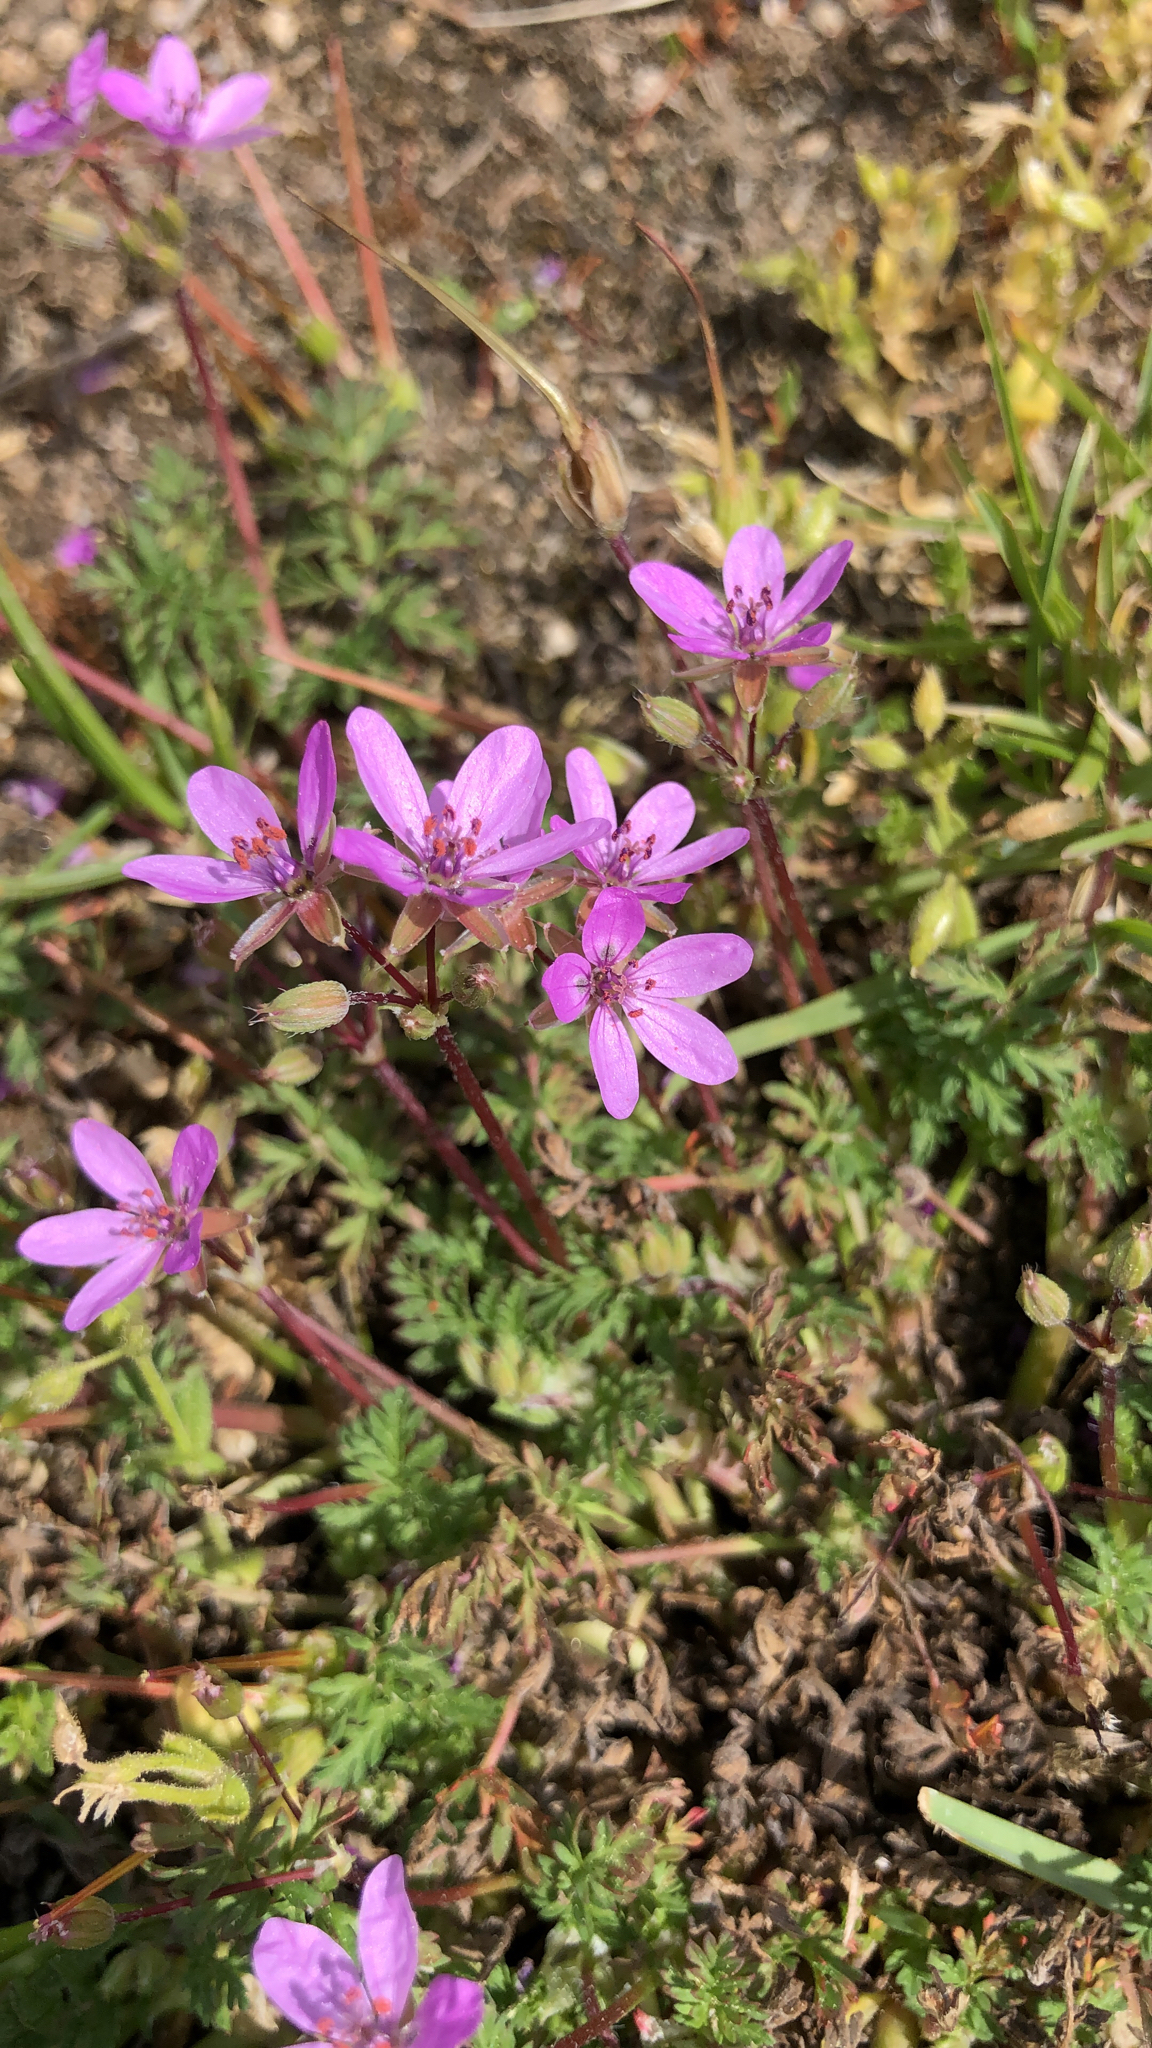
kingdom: Plantae
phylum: Tracheophyta
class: Magnoliopsida
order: Geraniales
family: Geraniaceae
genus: Erodium
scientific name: Erodium cicutarium
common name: Common stork's-bill
